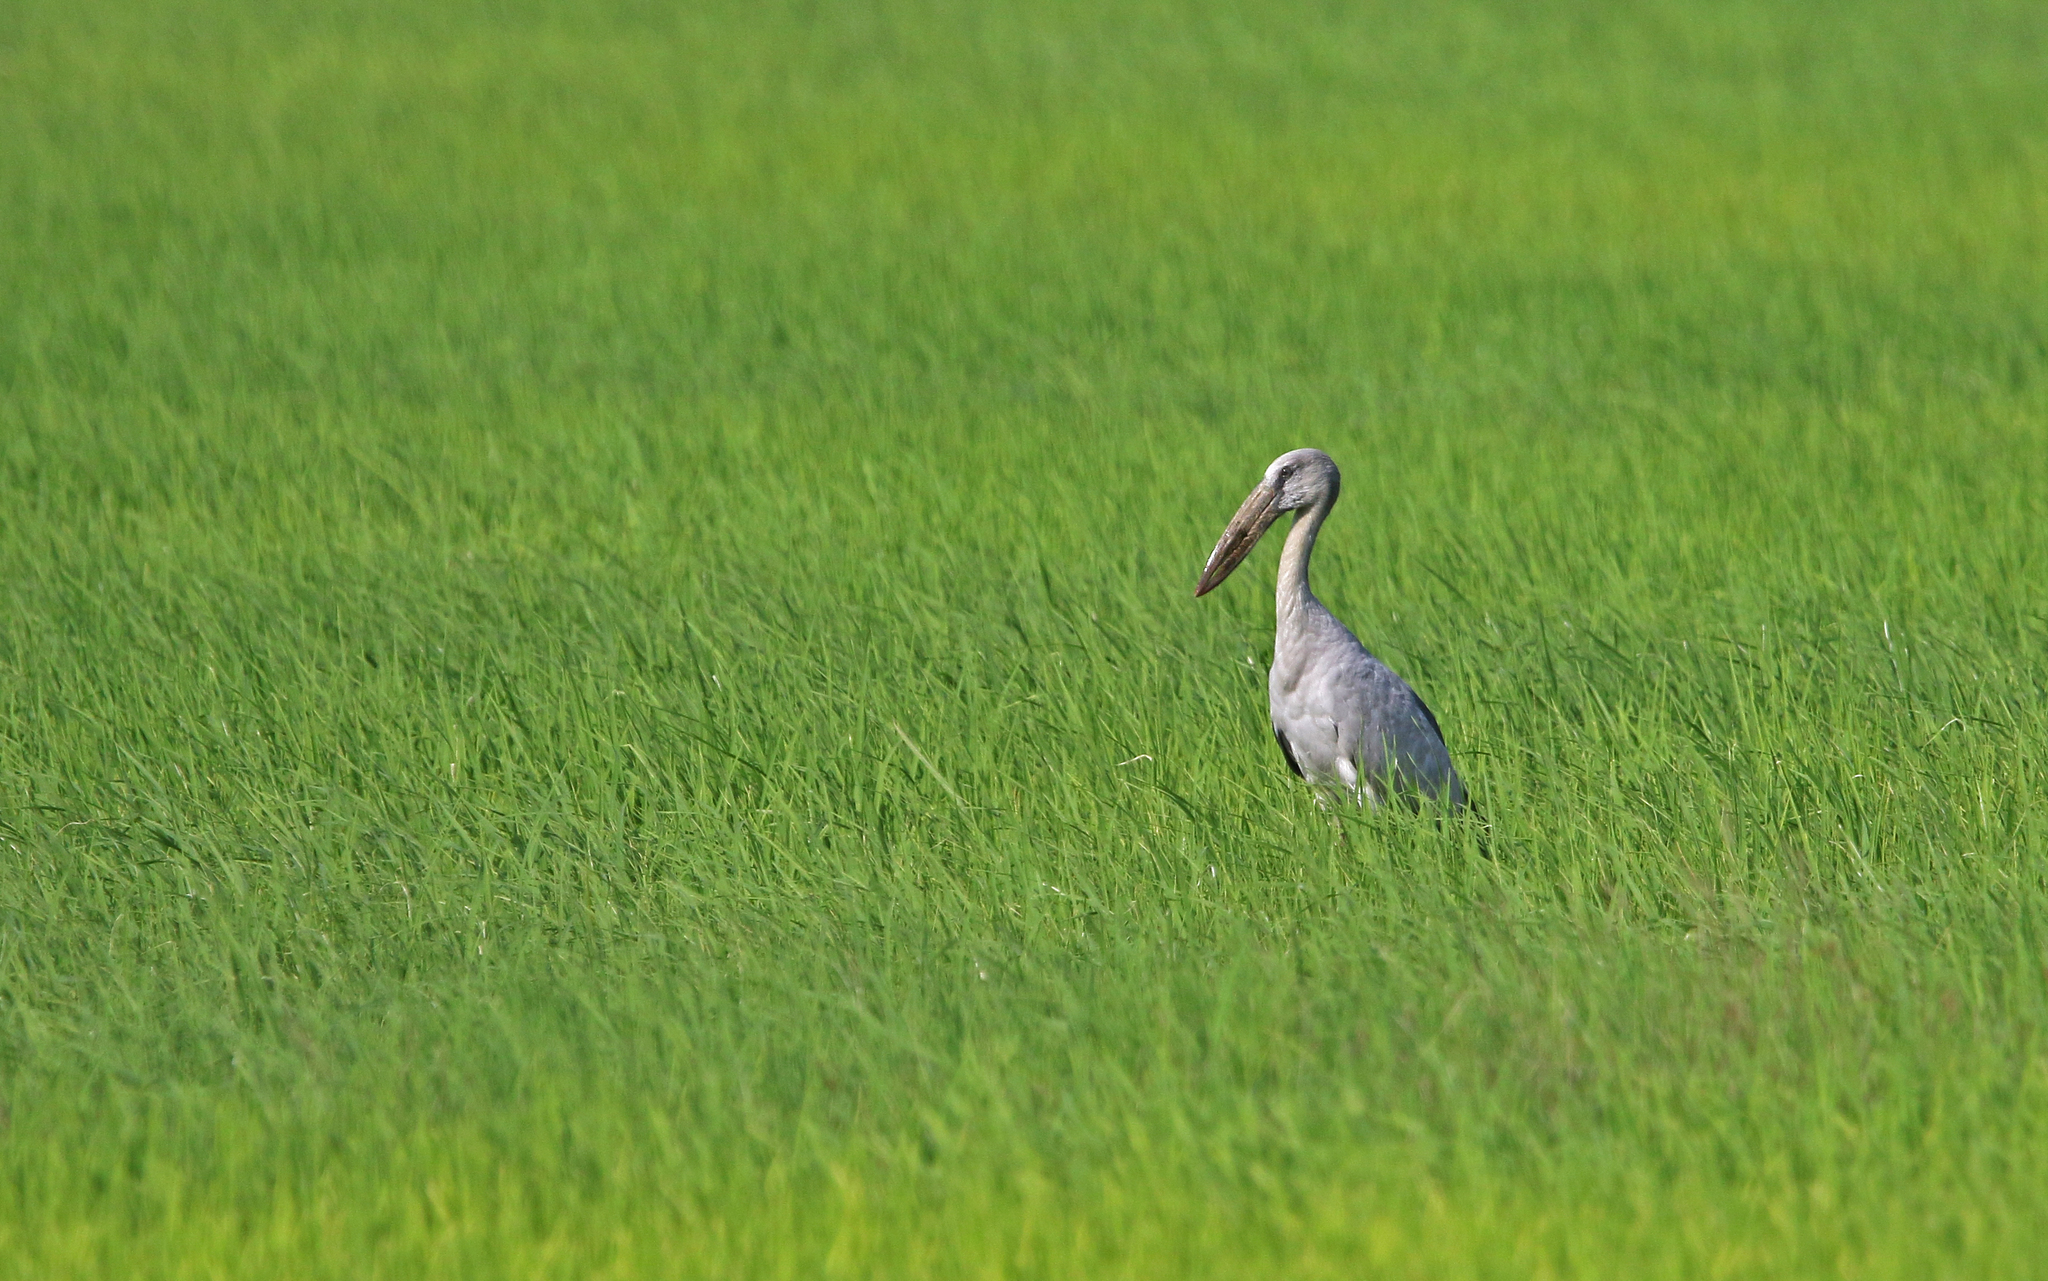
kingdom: Animalia
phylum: Chordata
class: Aves
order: Ciconiiformes
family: Ciconiidae
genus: Anastomus
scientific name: Anastomus oscitans
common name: Asian openbill
